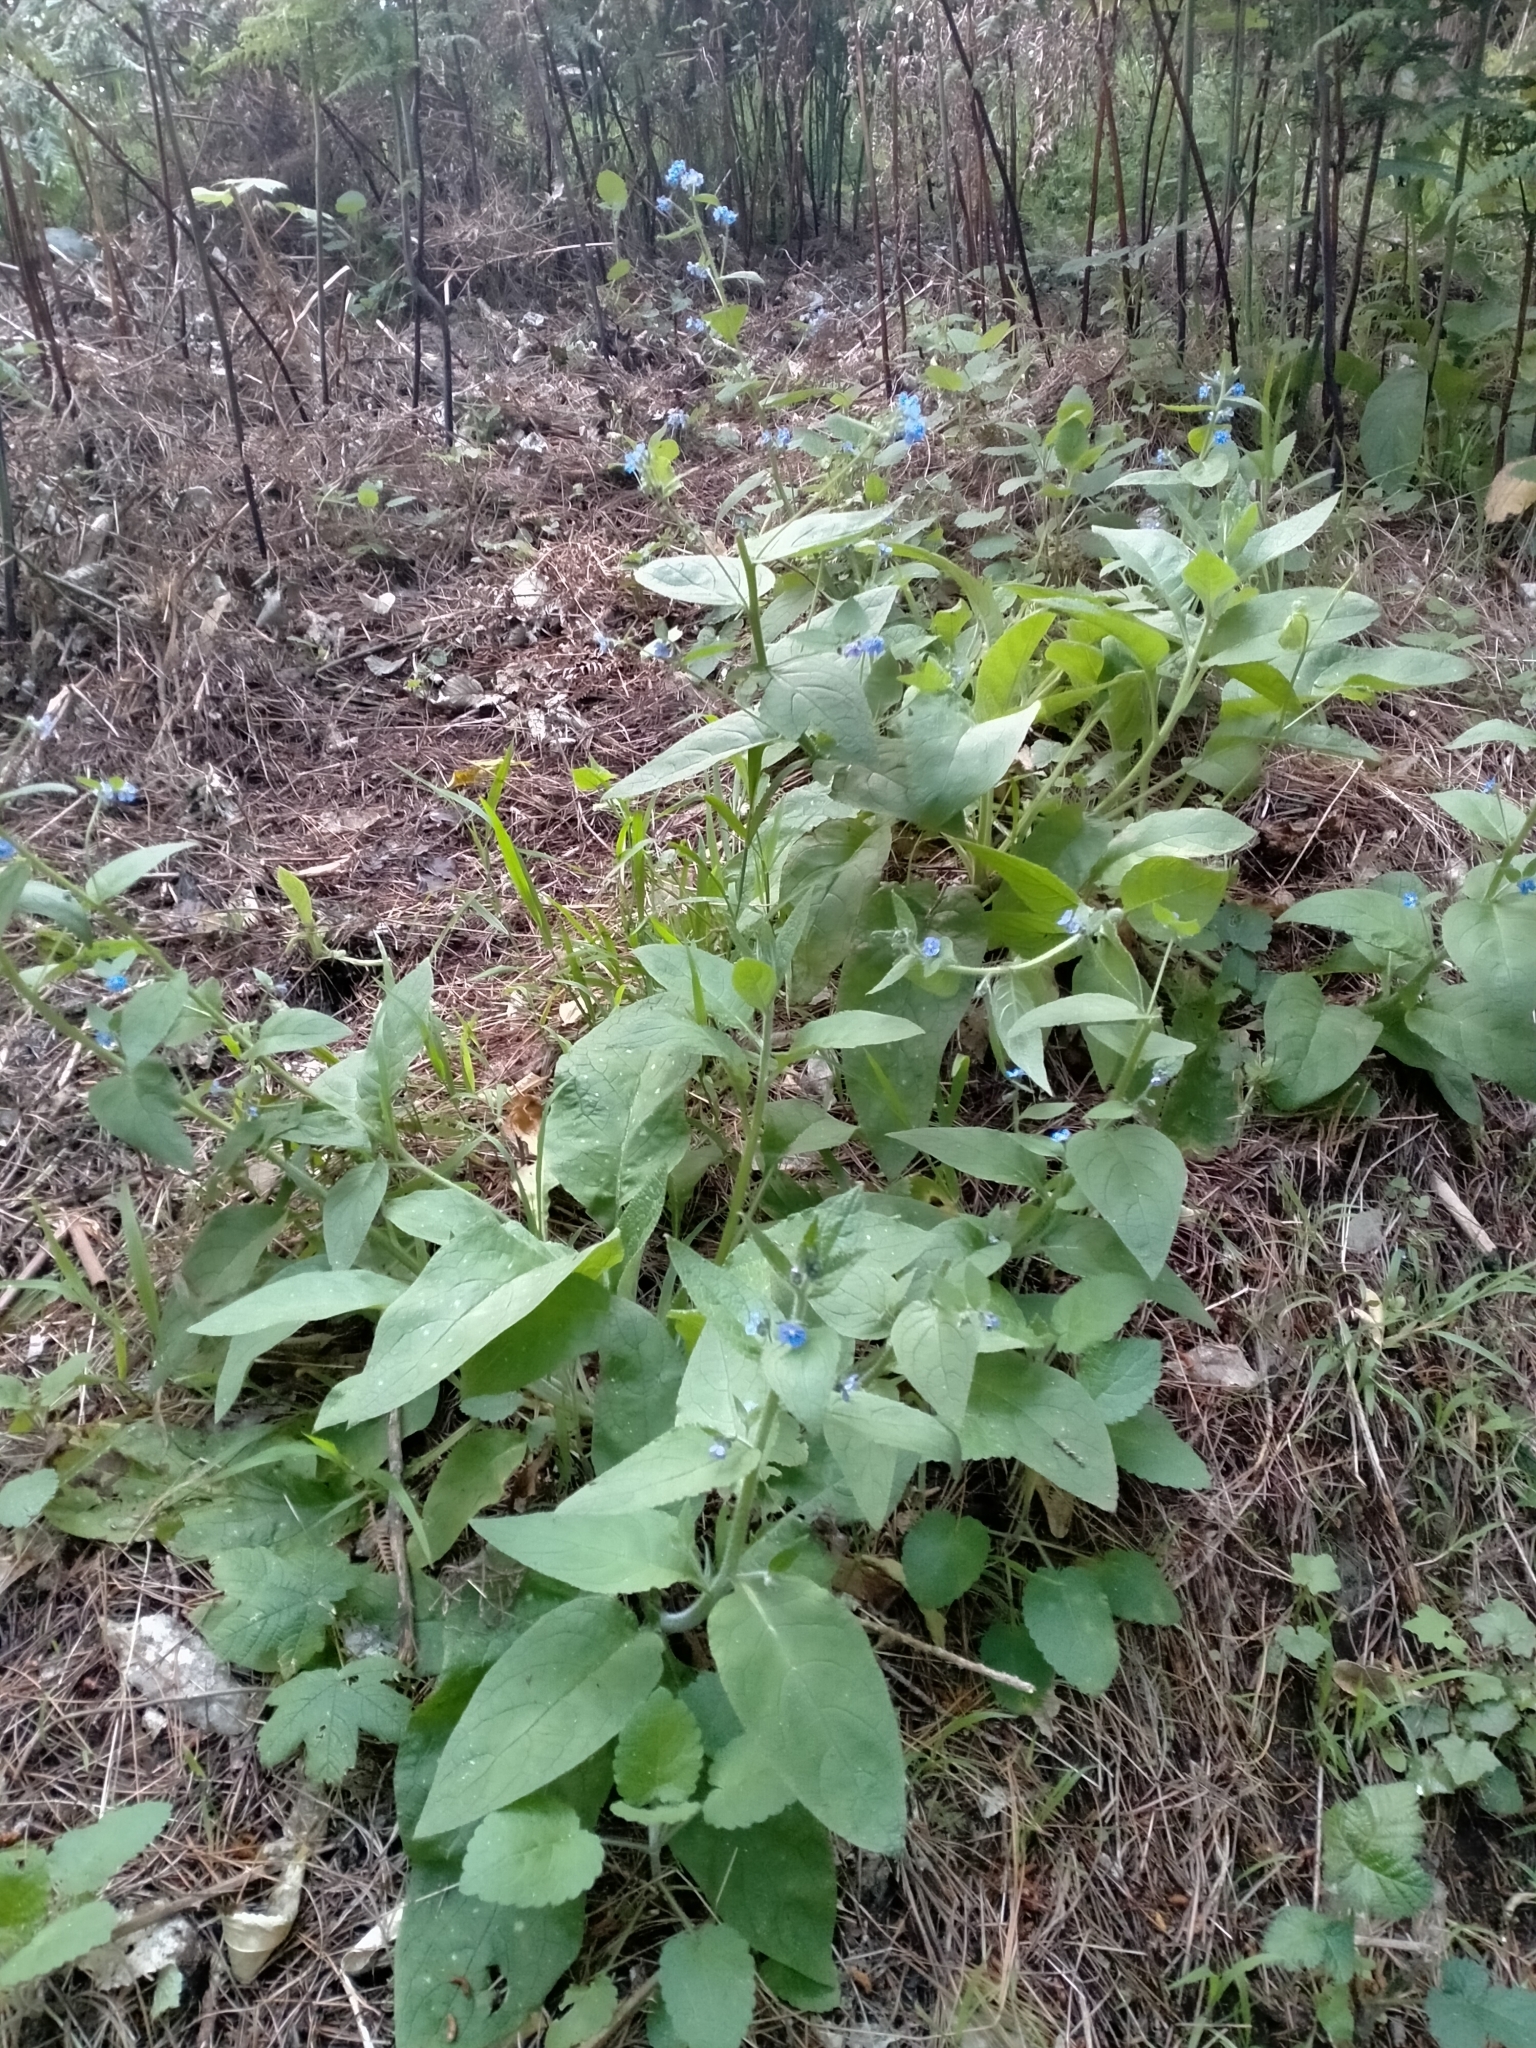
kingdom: Plantae
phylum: Tracheophyta
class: Magnoliopsida
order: Boraginales
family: Boraginaceae
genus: Pentaglottis
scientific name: Pentaglottis sempervirens
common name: Green alkanet
